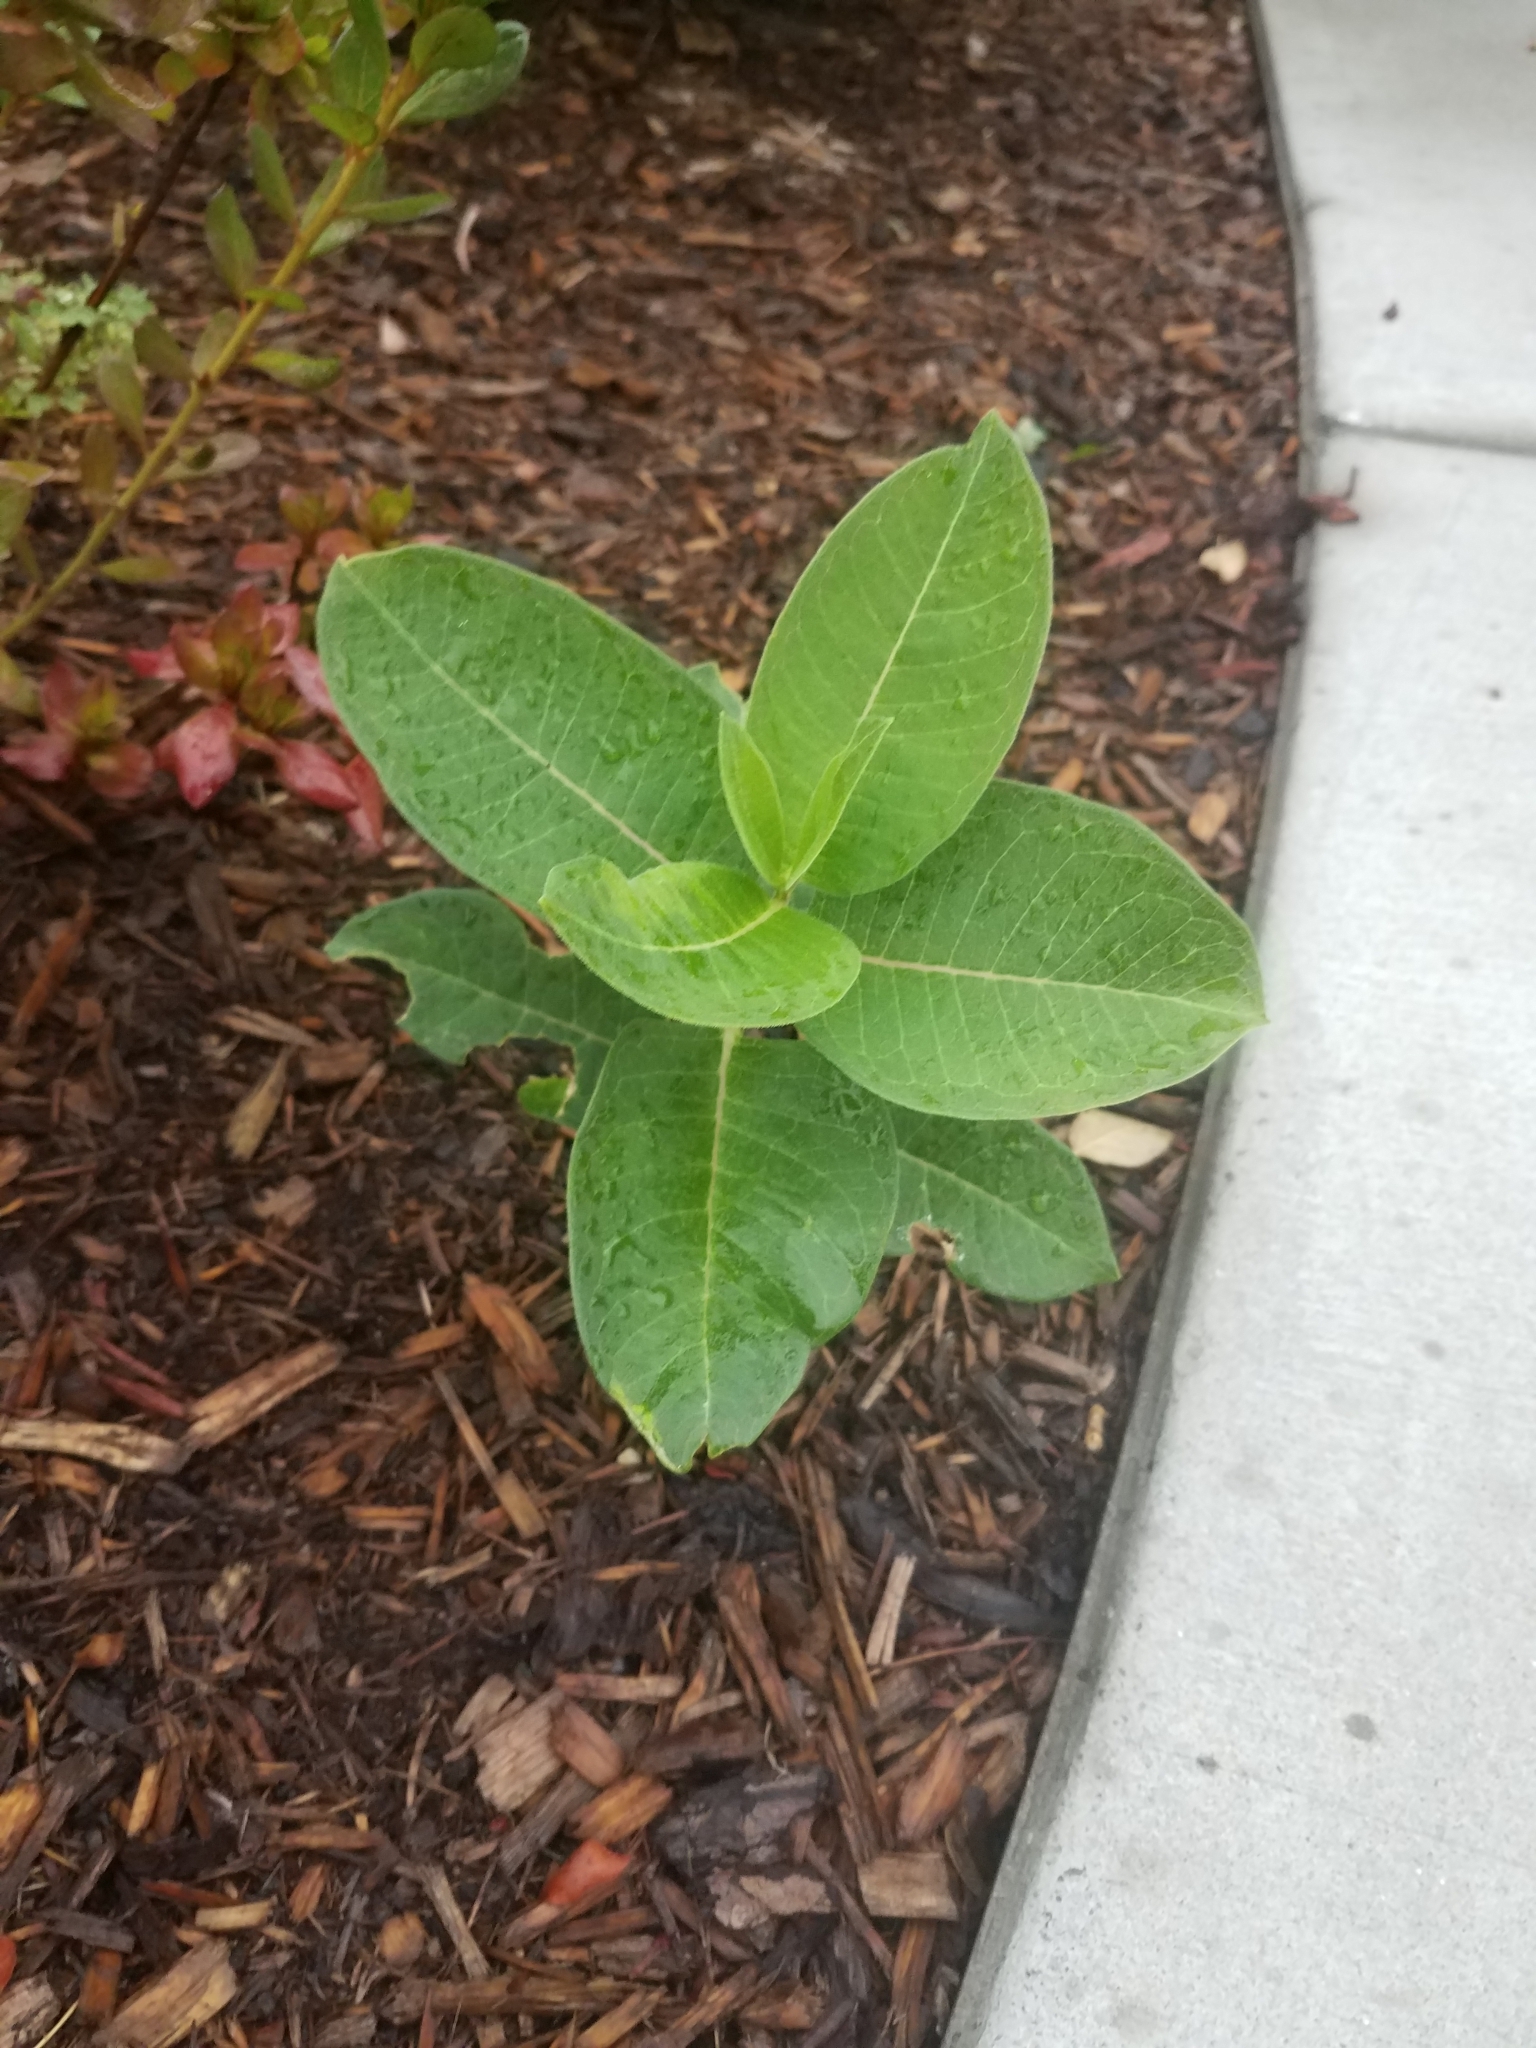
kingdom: Plantae
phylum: Tracheophyta
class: Magnoliopsida
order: Gentianales
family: Apocynaceae
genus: Asclepias
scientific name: Asclepias syriaca
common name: Common milkweed
